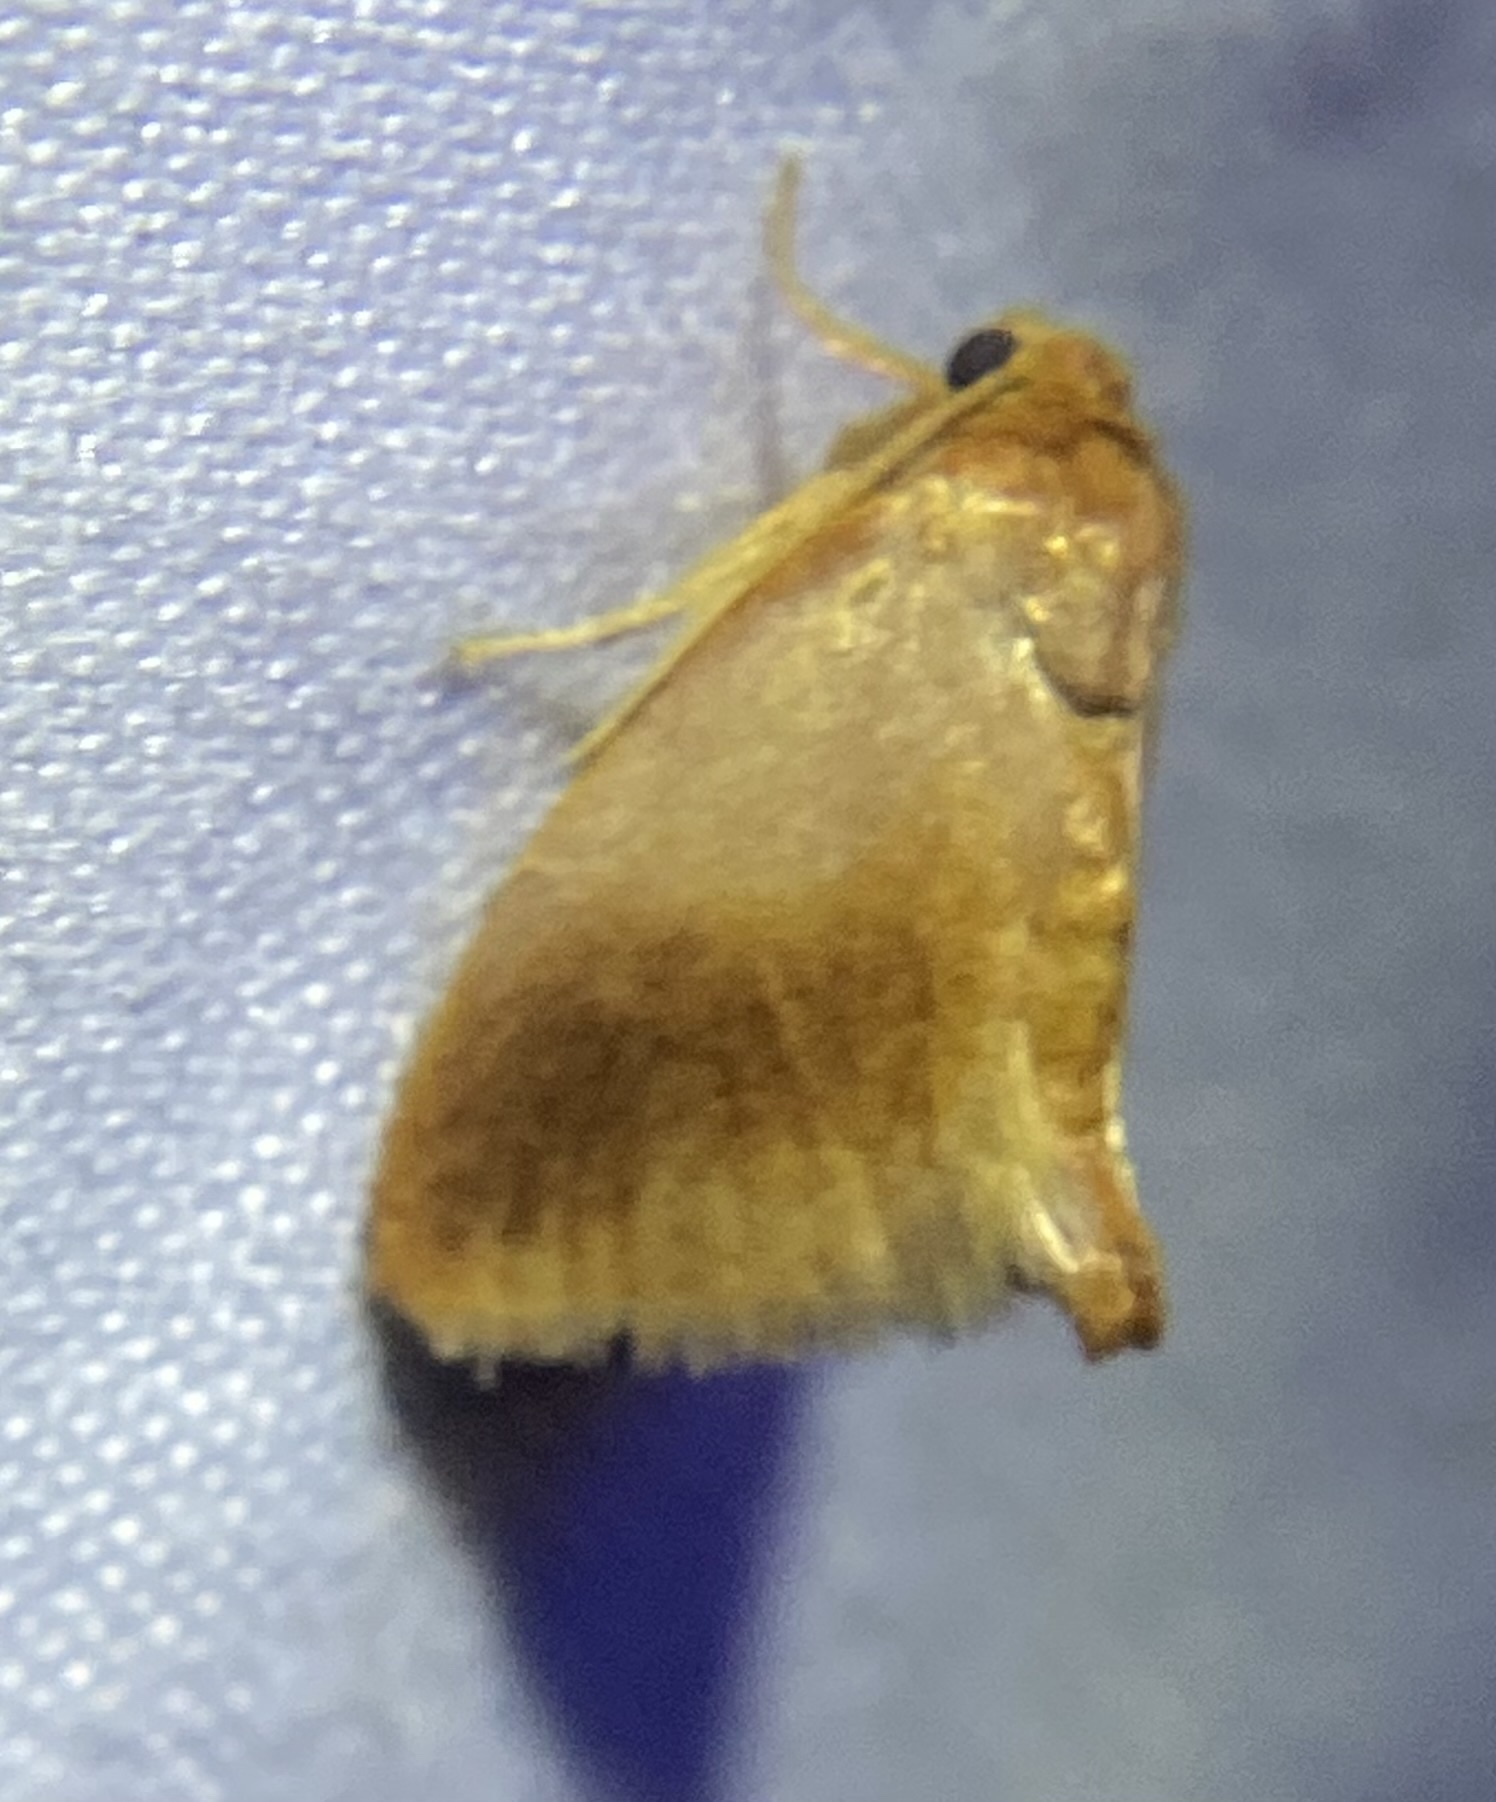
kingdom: Animalia
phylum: Arthropoda
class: Insecta
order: Lepidoptera
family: Limacodidae
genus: Tortricidia
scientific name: Tortricidia testacea
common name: Early button slug moth
